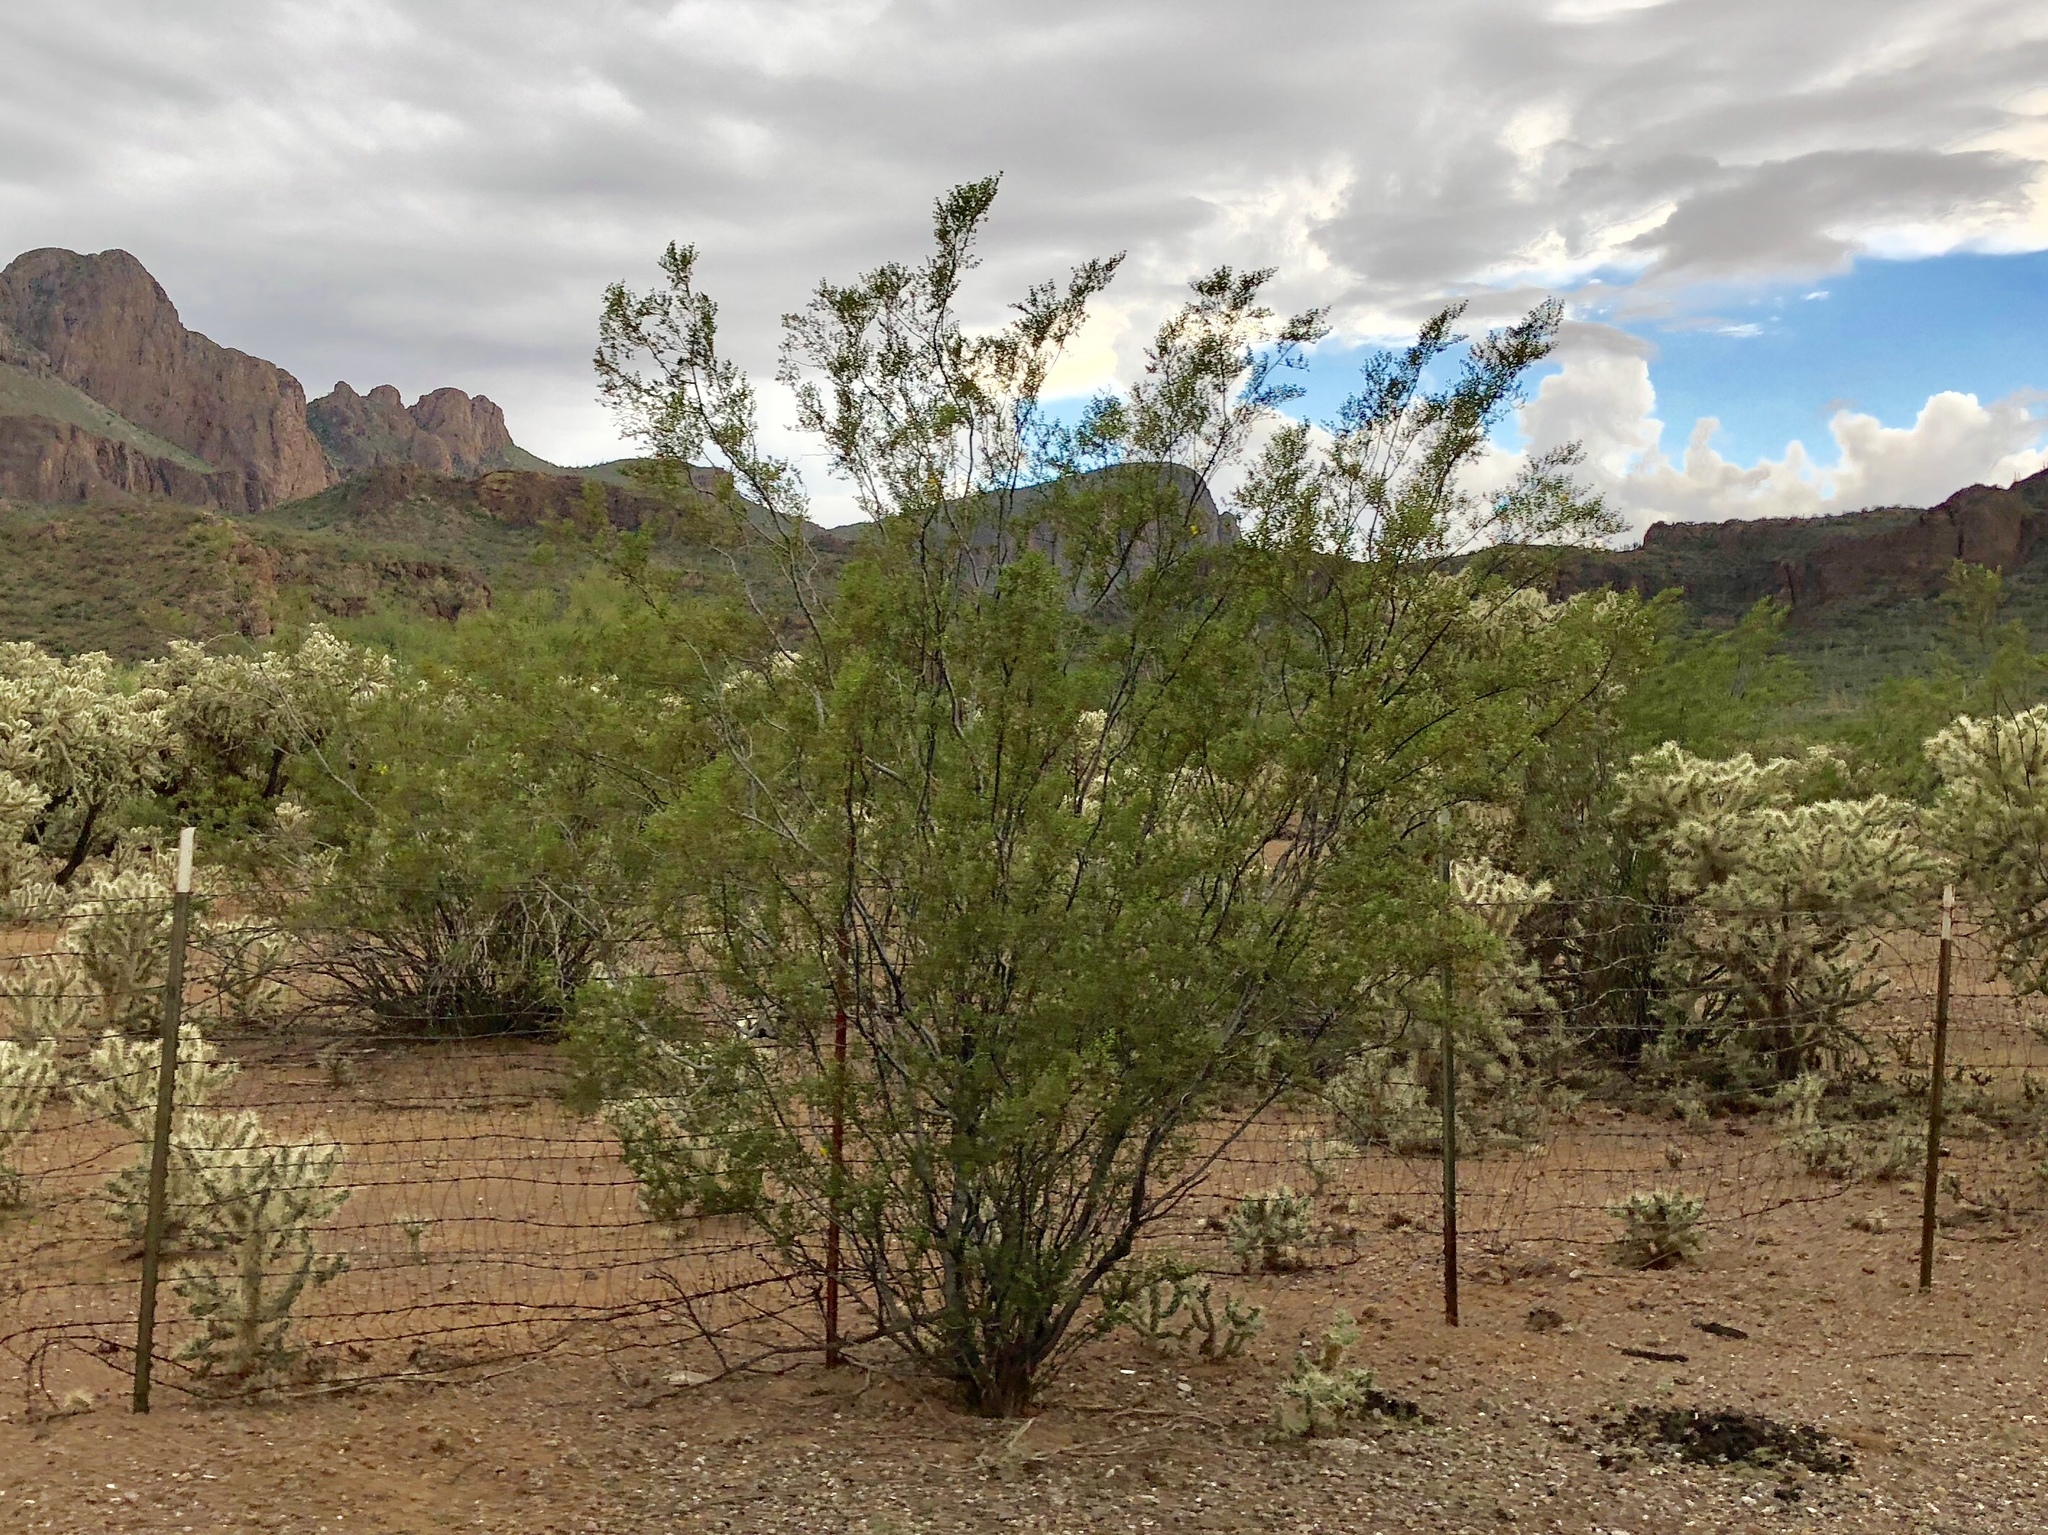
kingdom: Plantae
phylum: Tracheophyta
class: Magnoliopsida
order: Zygophyllales
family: Zygophyllaceae
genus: Larrea
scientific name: Larrea tridentata
